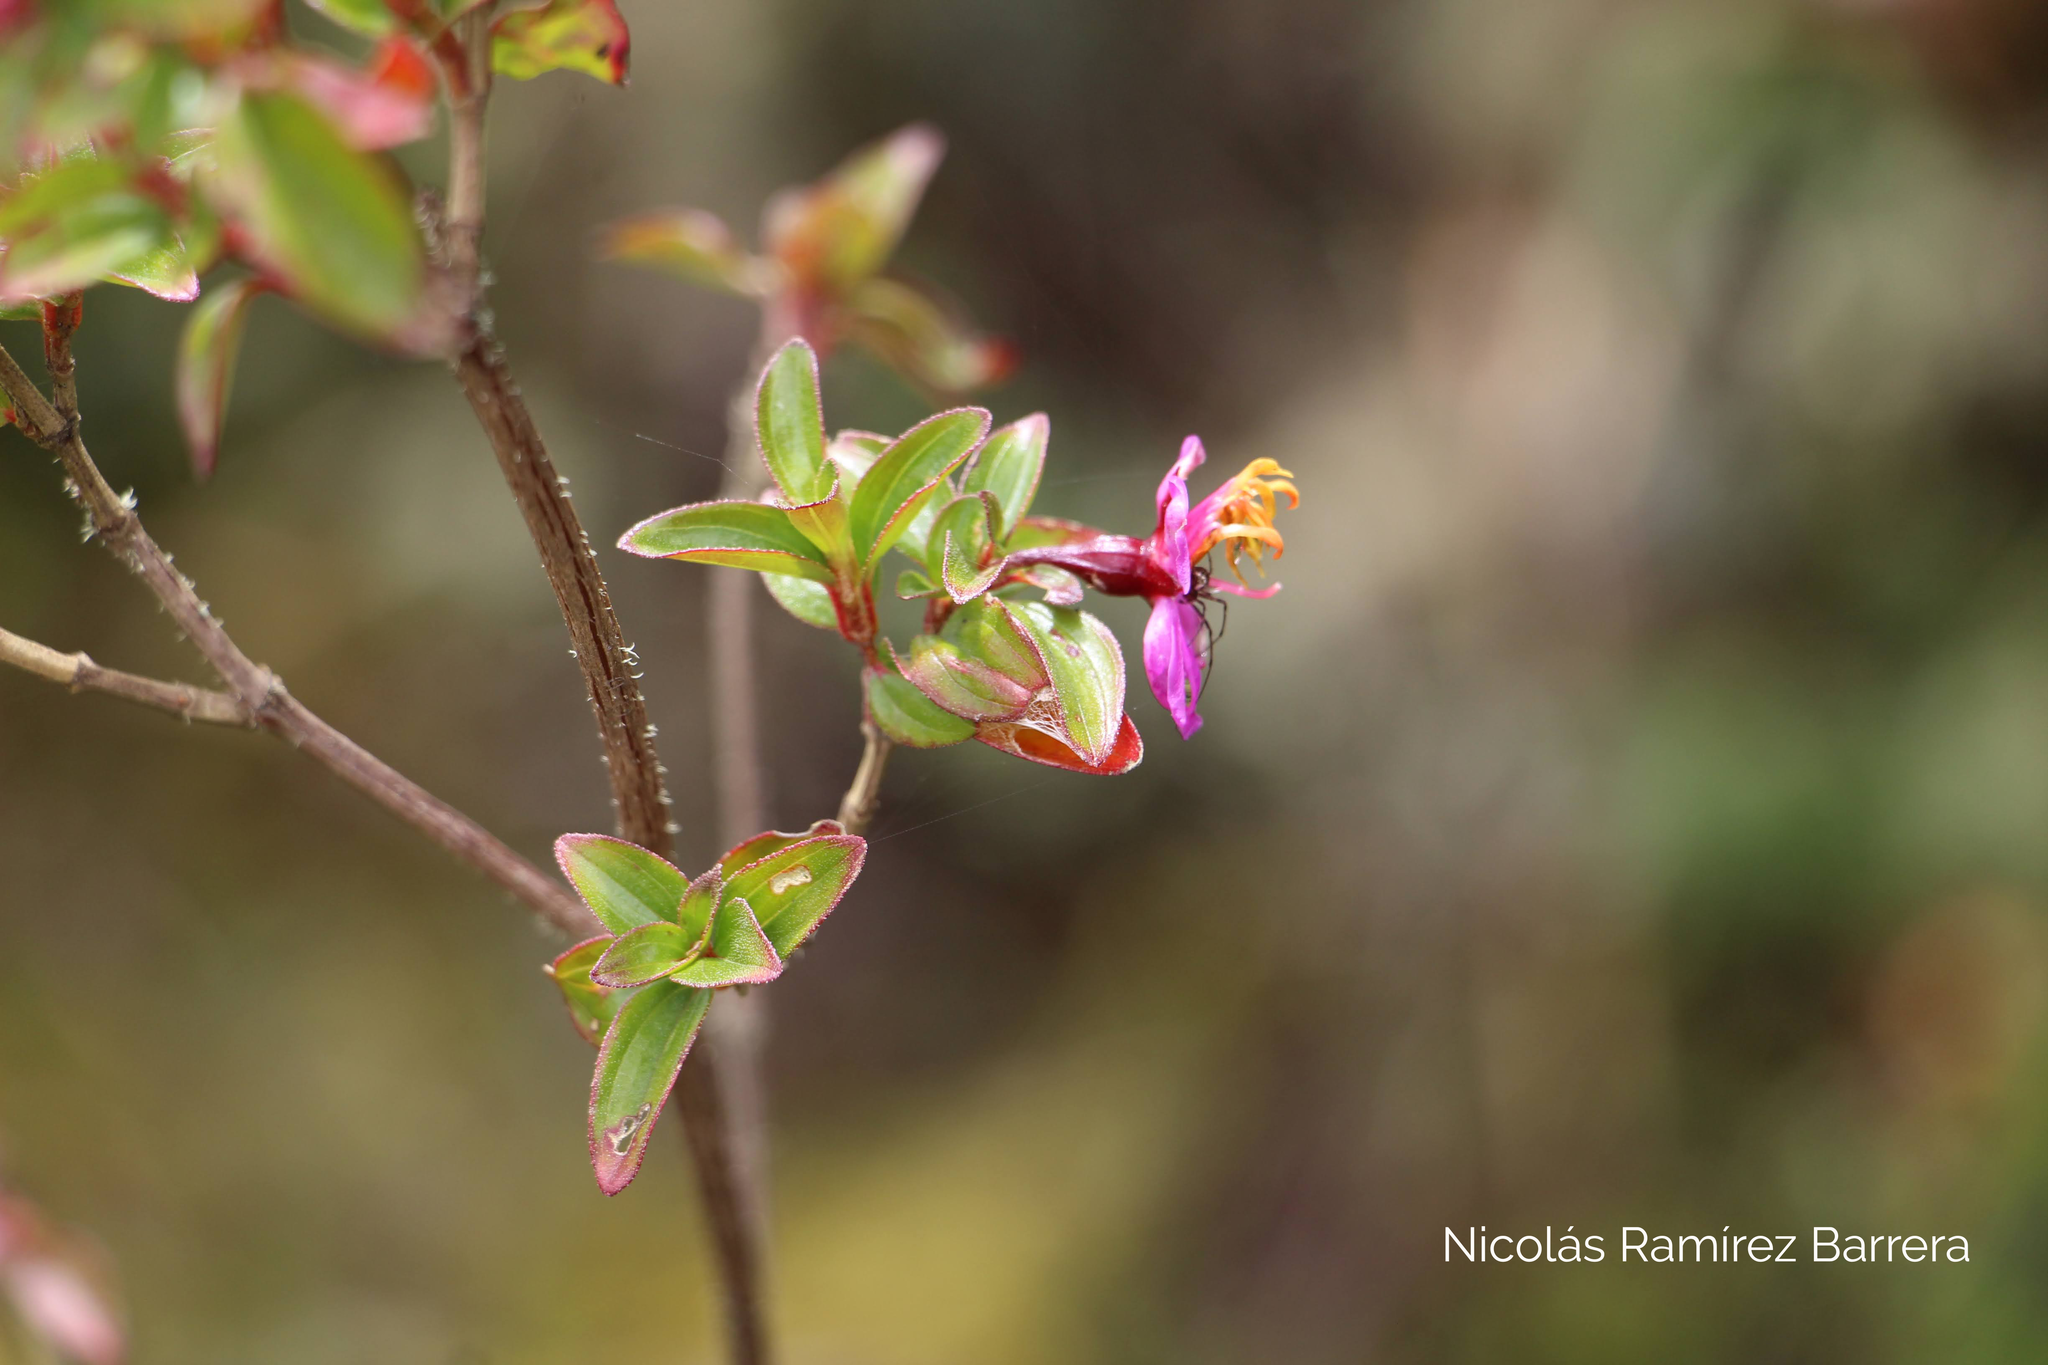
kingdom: Plantae
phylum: Tracheophyta
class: Magnoliopsida
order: Myrtales
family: Melastomataceae
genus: Monochaetum
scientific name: Monochaetum myrtoideum
